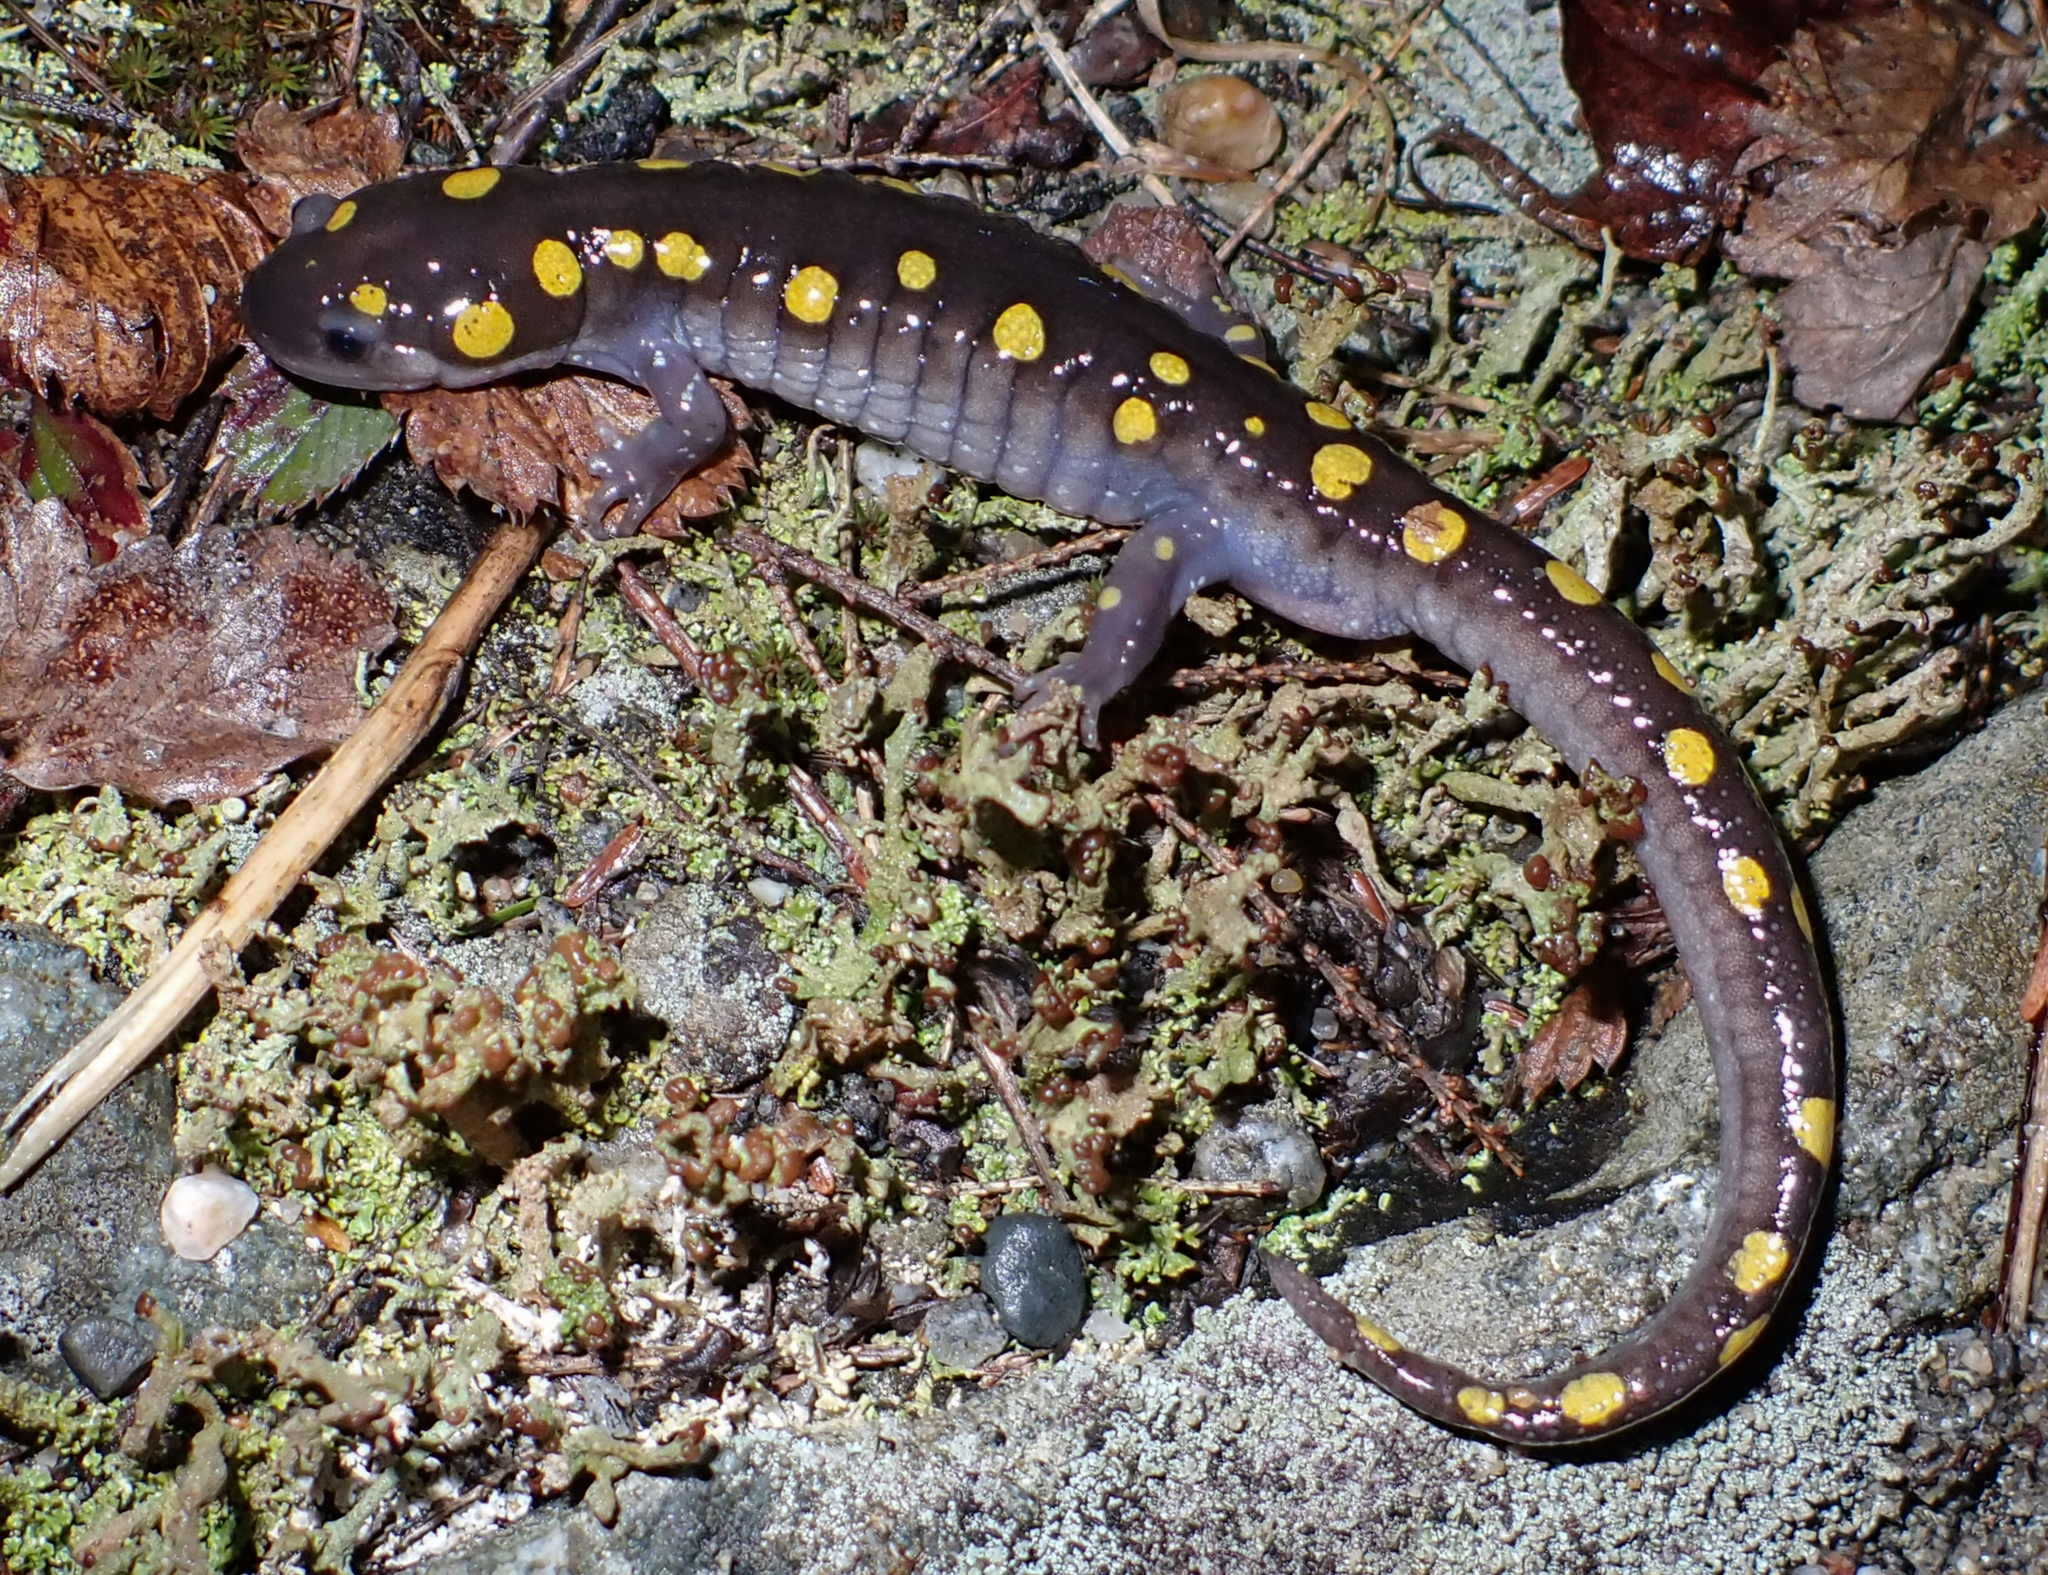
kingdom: Animalia
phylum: Chordata
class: Amphibia
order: Caudata
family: Ambystomatidae
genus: Ambystoma
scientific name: Ambystoma maculatum
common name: Spotted salamander
